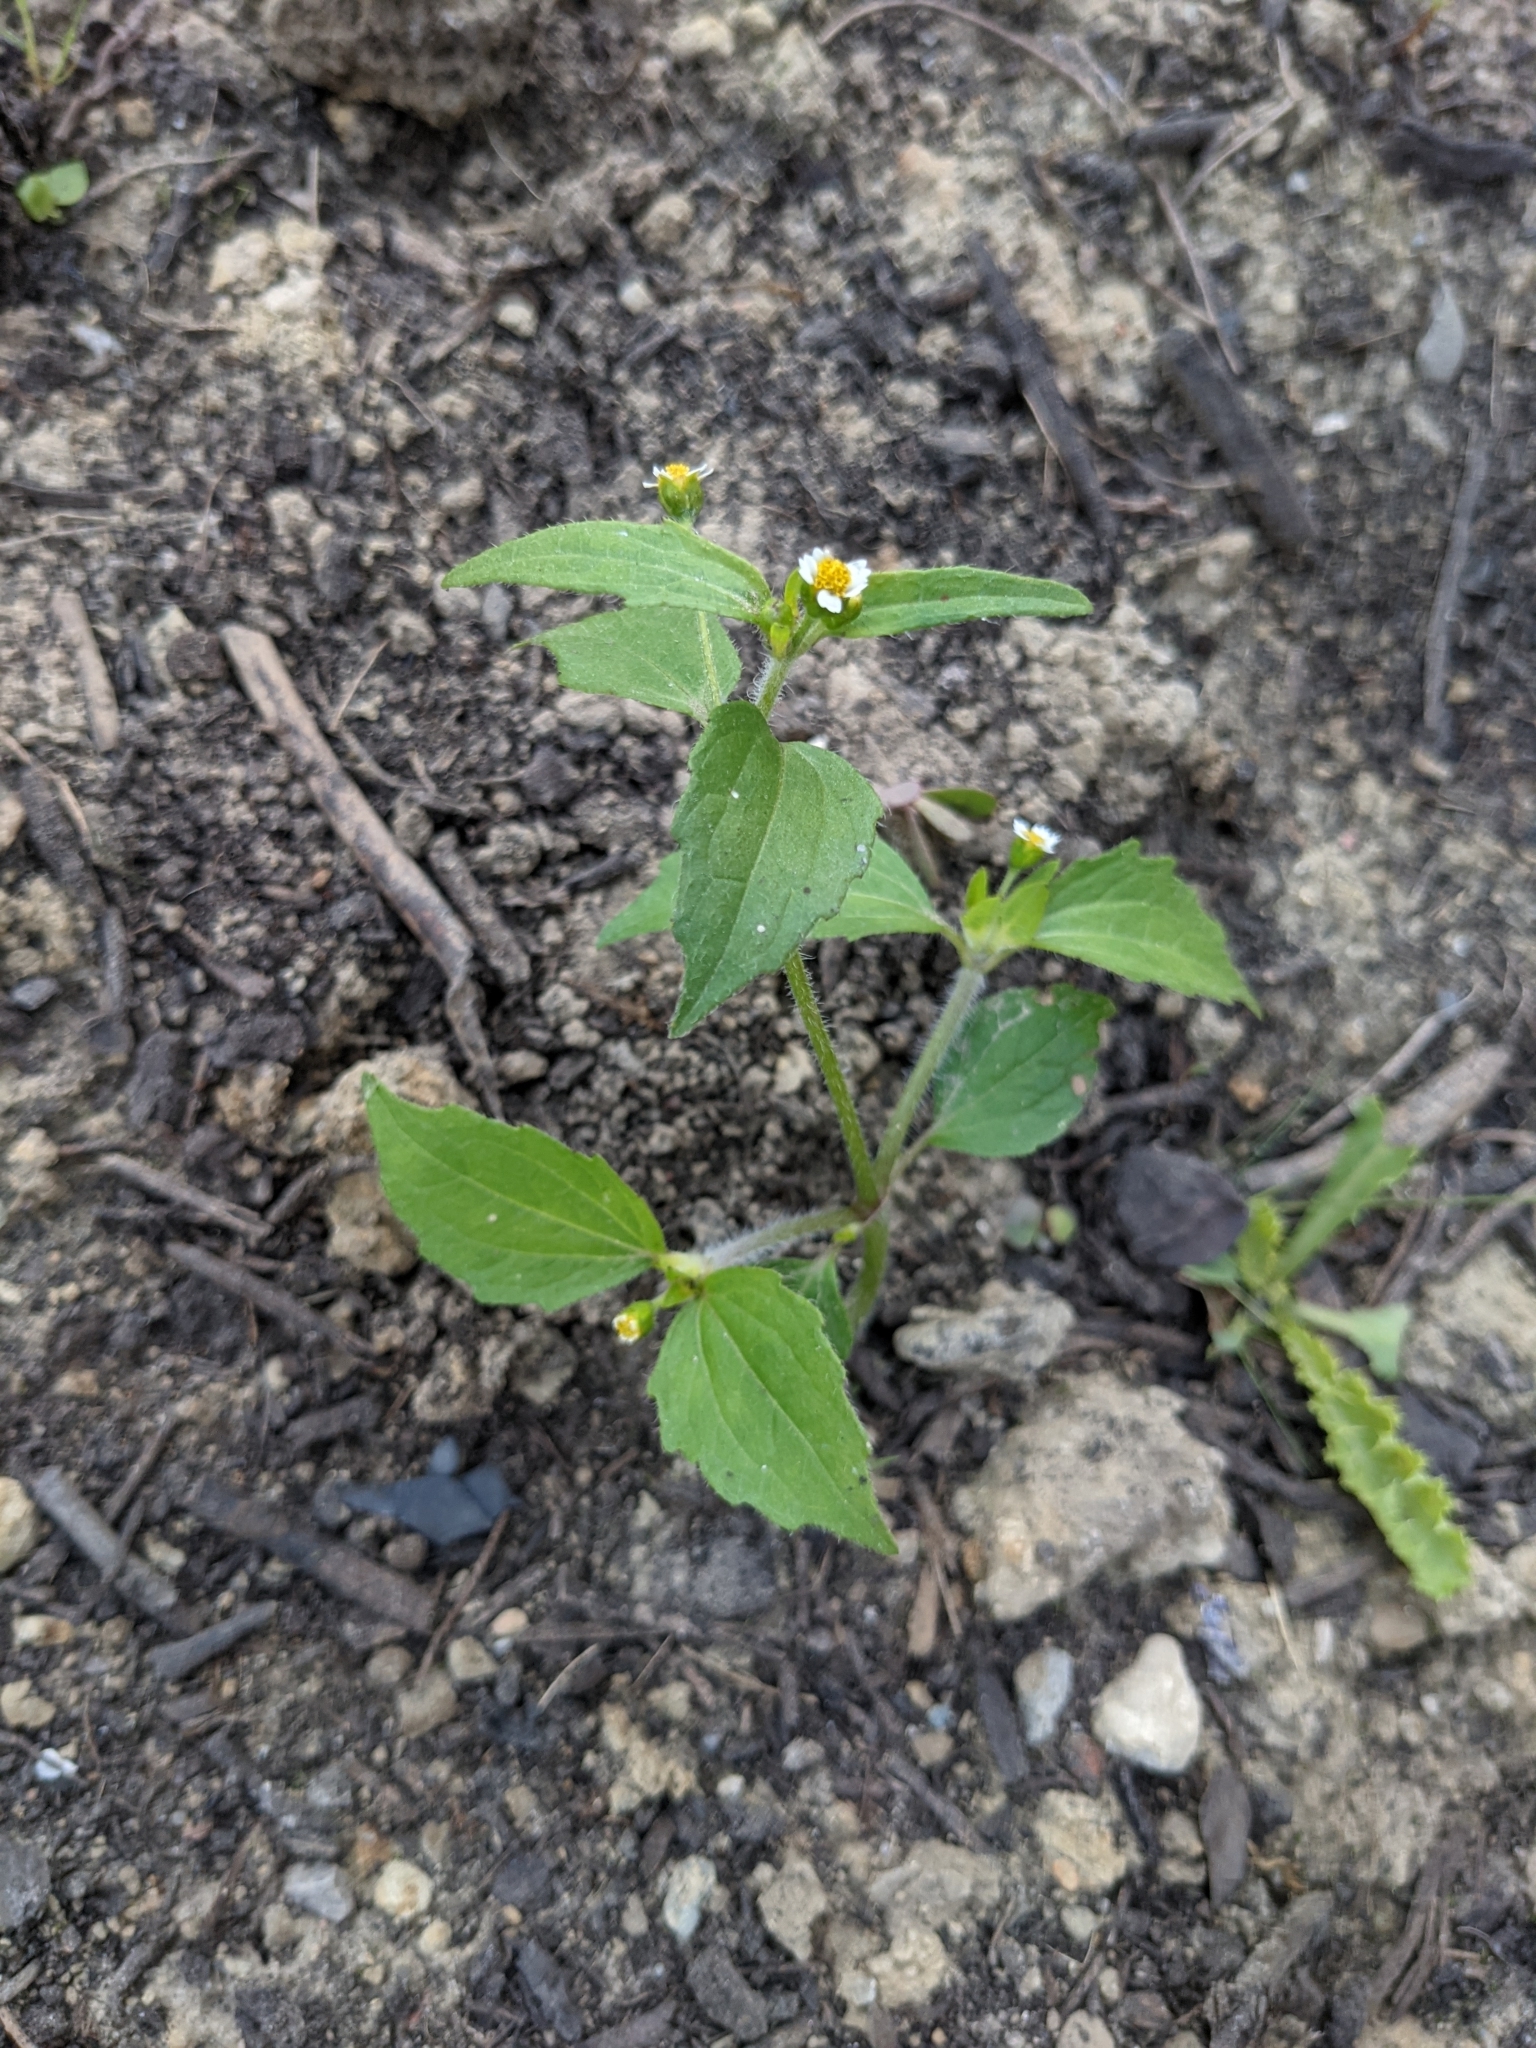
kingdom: Plantae
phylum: Tracheophyta
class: Magnoliopsida
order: Asterales
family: Asteraceae
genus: Galinsoga
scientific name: Galinsoga quadriradiata
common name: Shaggy soldier
